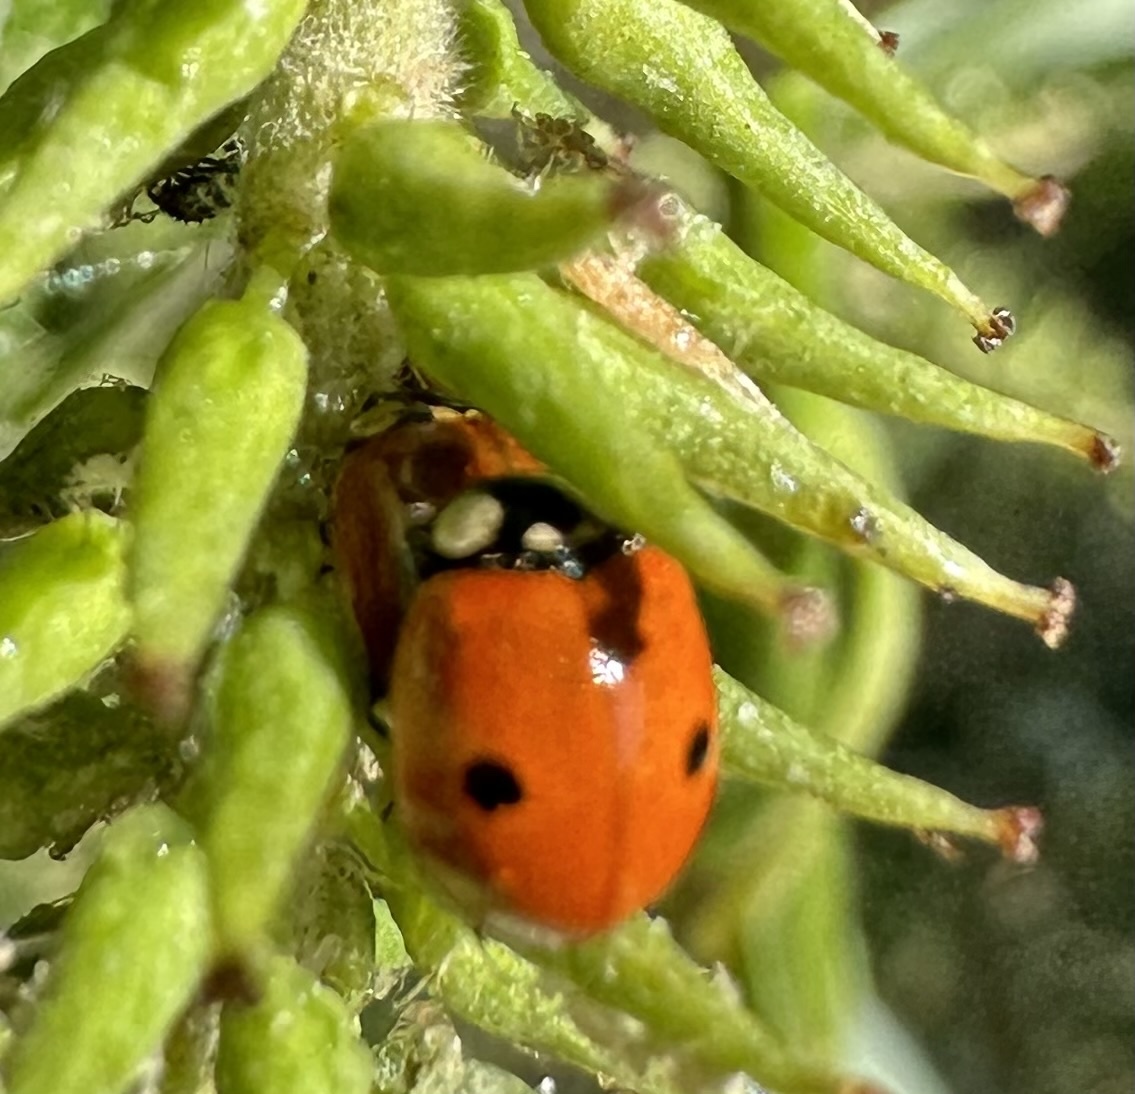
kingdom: Animalia
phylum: Arthropoda
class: Insecta
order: Coleoptera
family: Coccinellidae
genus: Adalia
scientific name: Adalia bipunctata
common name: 2-spot ladybird
